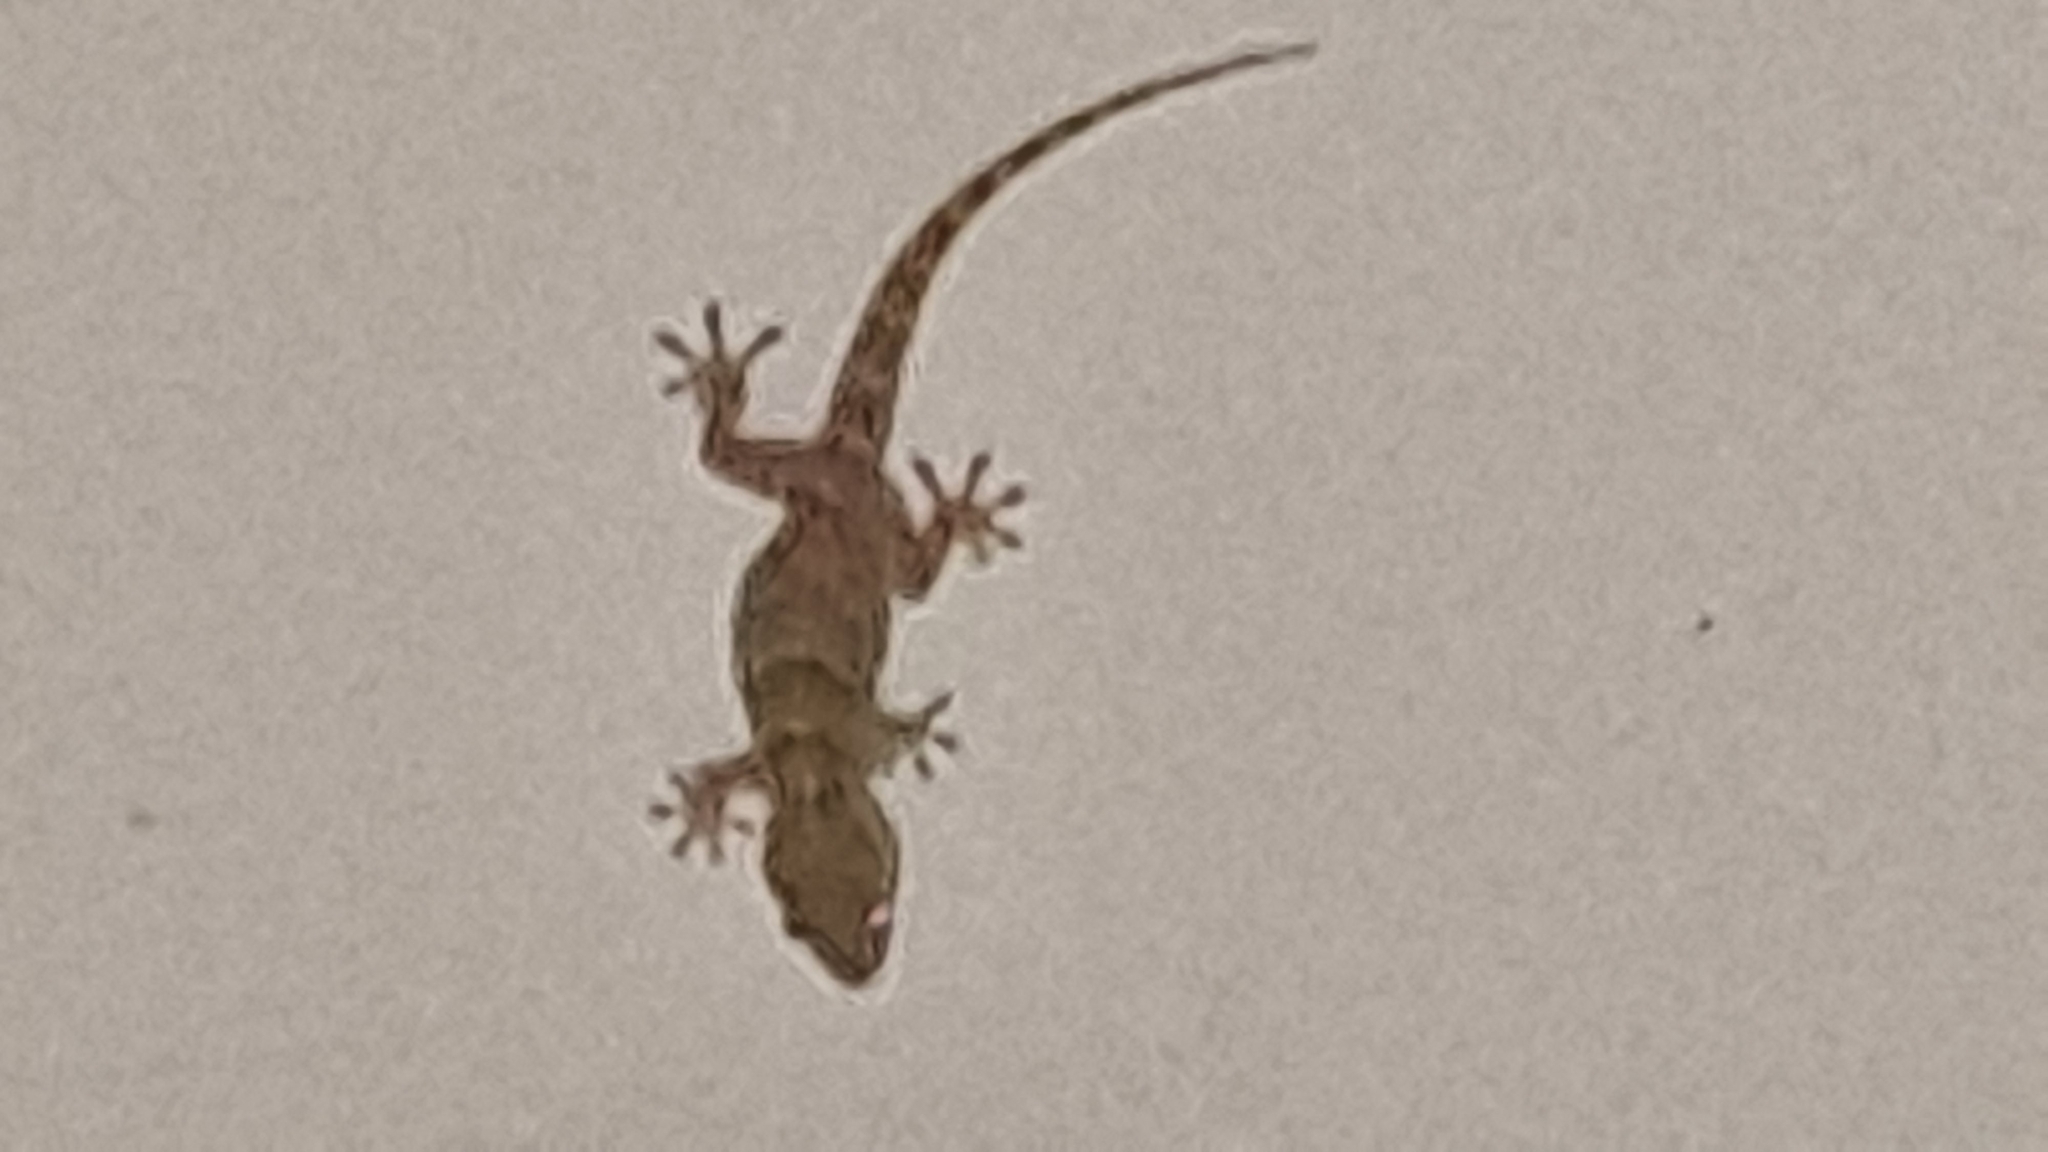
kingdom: Animalia
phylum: Chordata
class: Squamata
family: Phyllodactylidae
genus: Tarentola
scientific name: Tarentola mauritanica
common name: Moorish gecko
